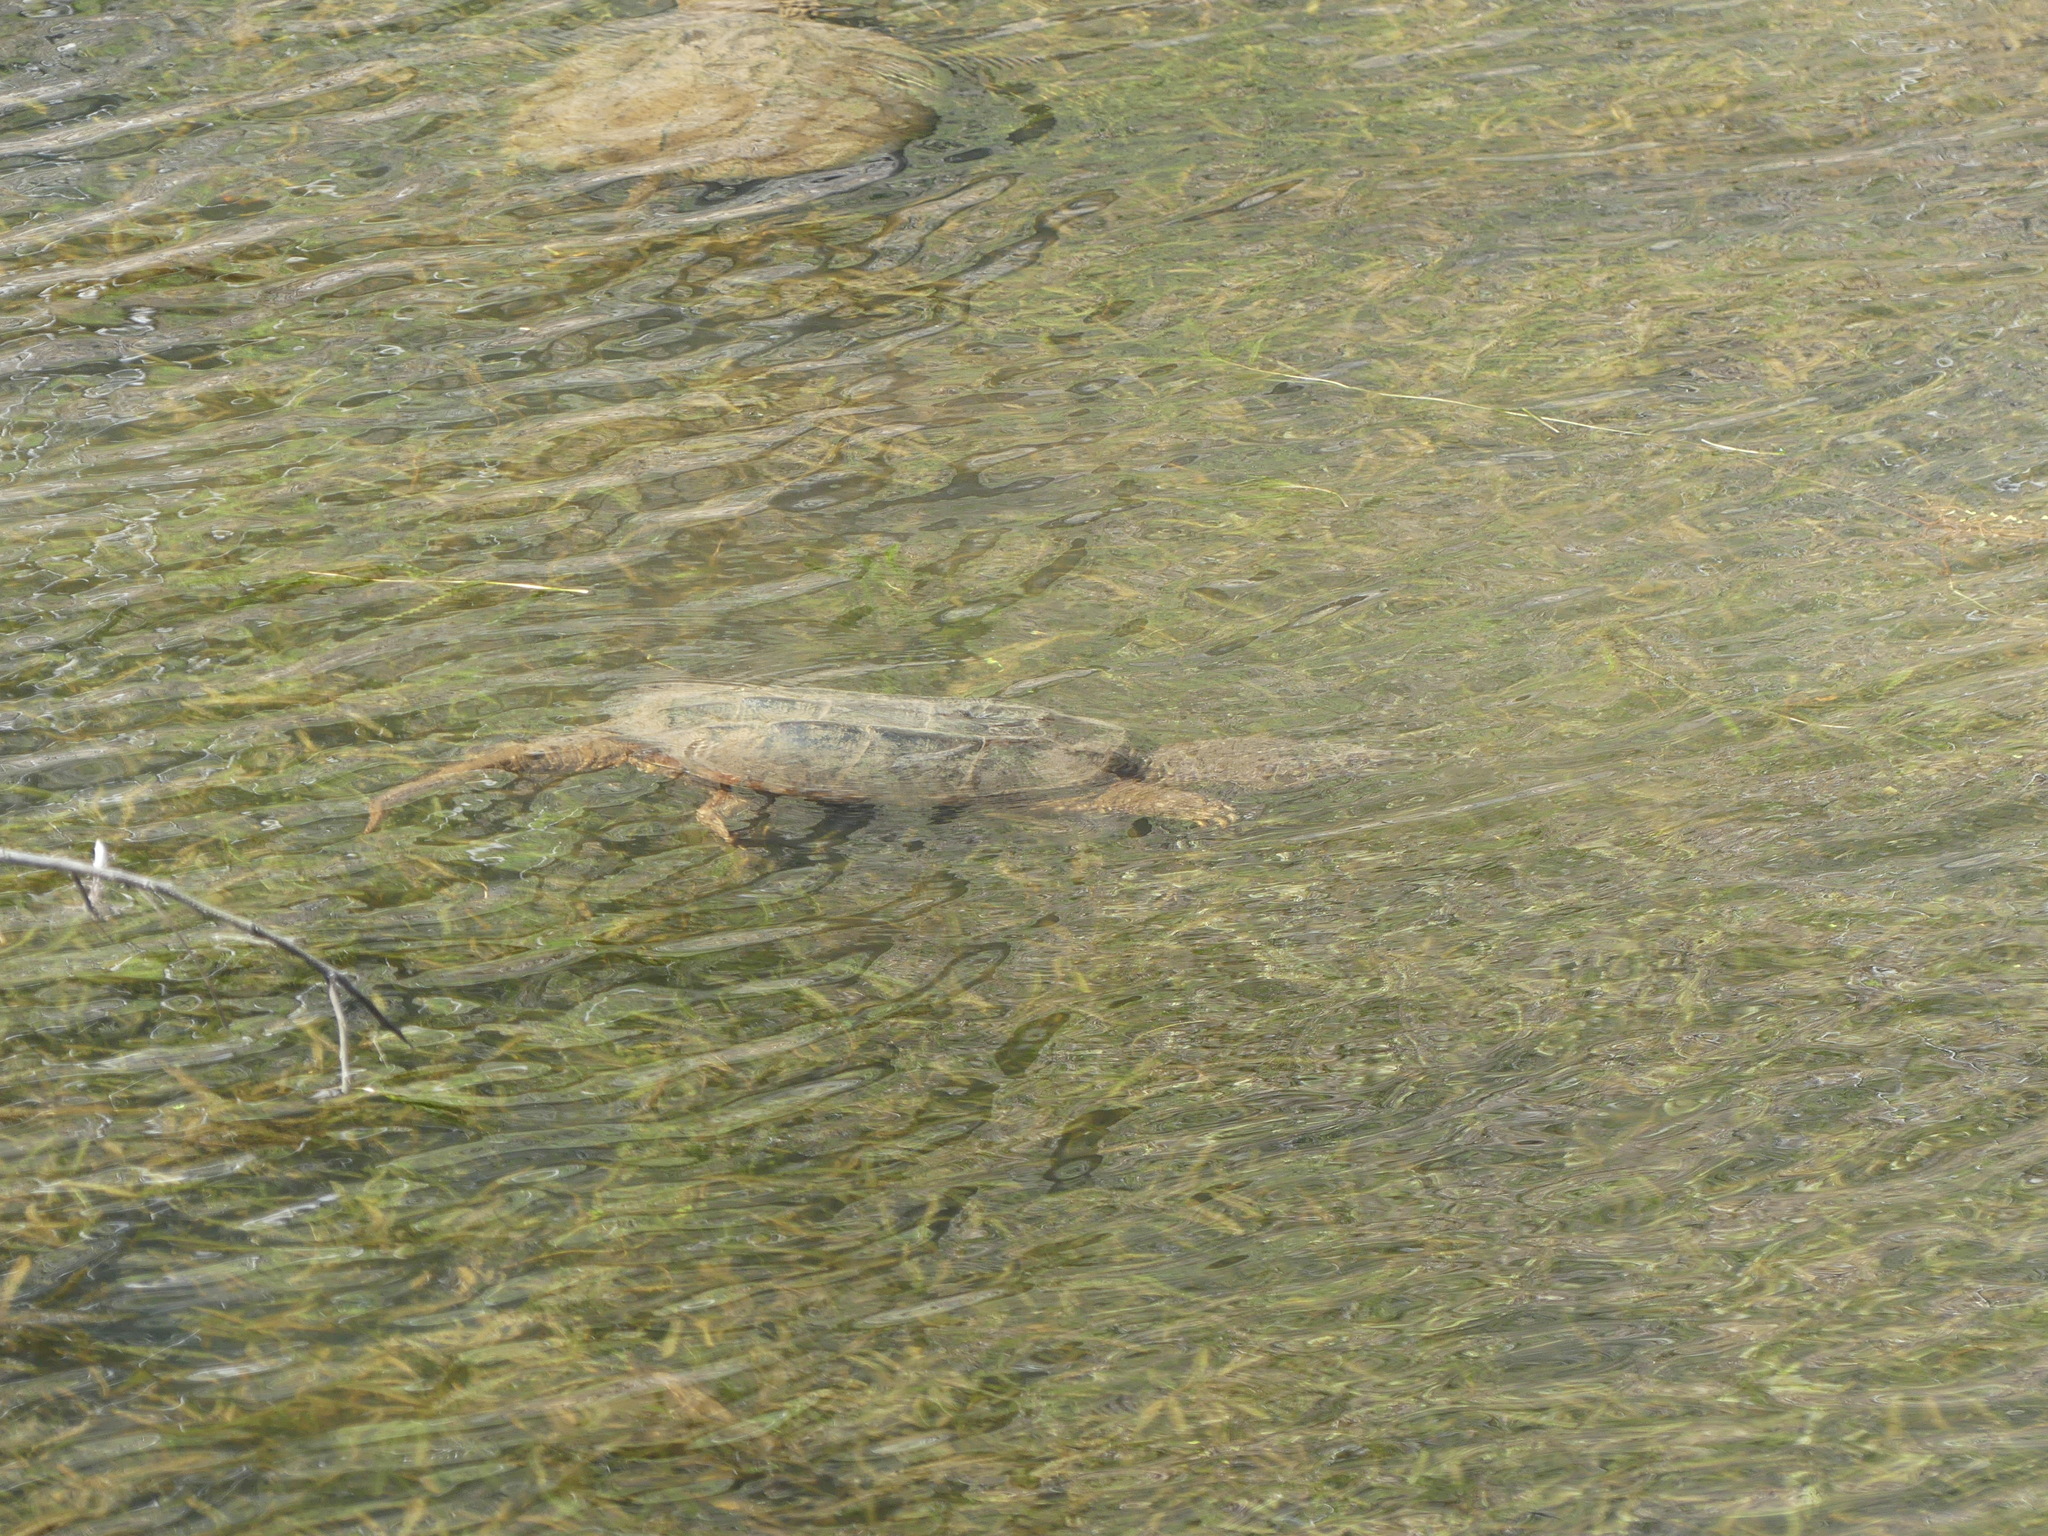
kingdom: Animalia
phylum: Chordata
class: Testudines
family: Chelydridae
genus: Chelydra
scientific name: Chelydra serpentina
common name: Common snapping turtle
